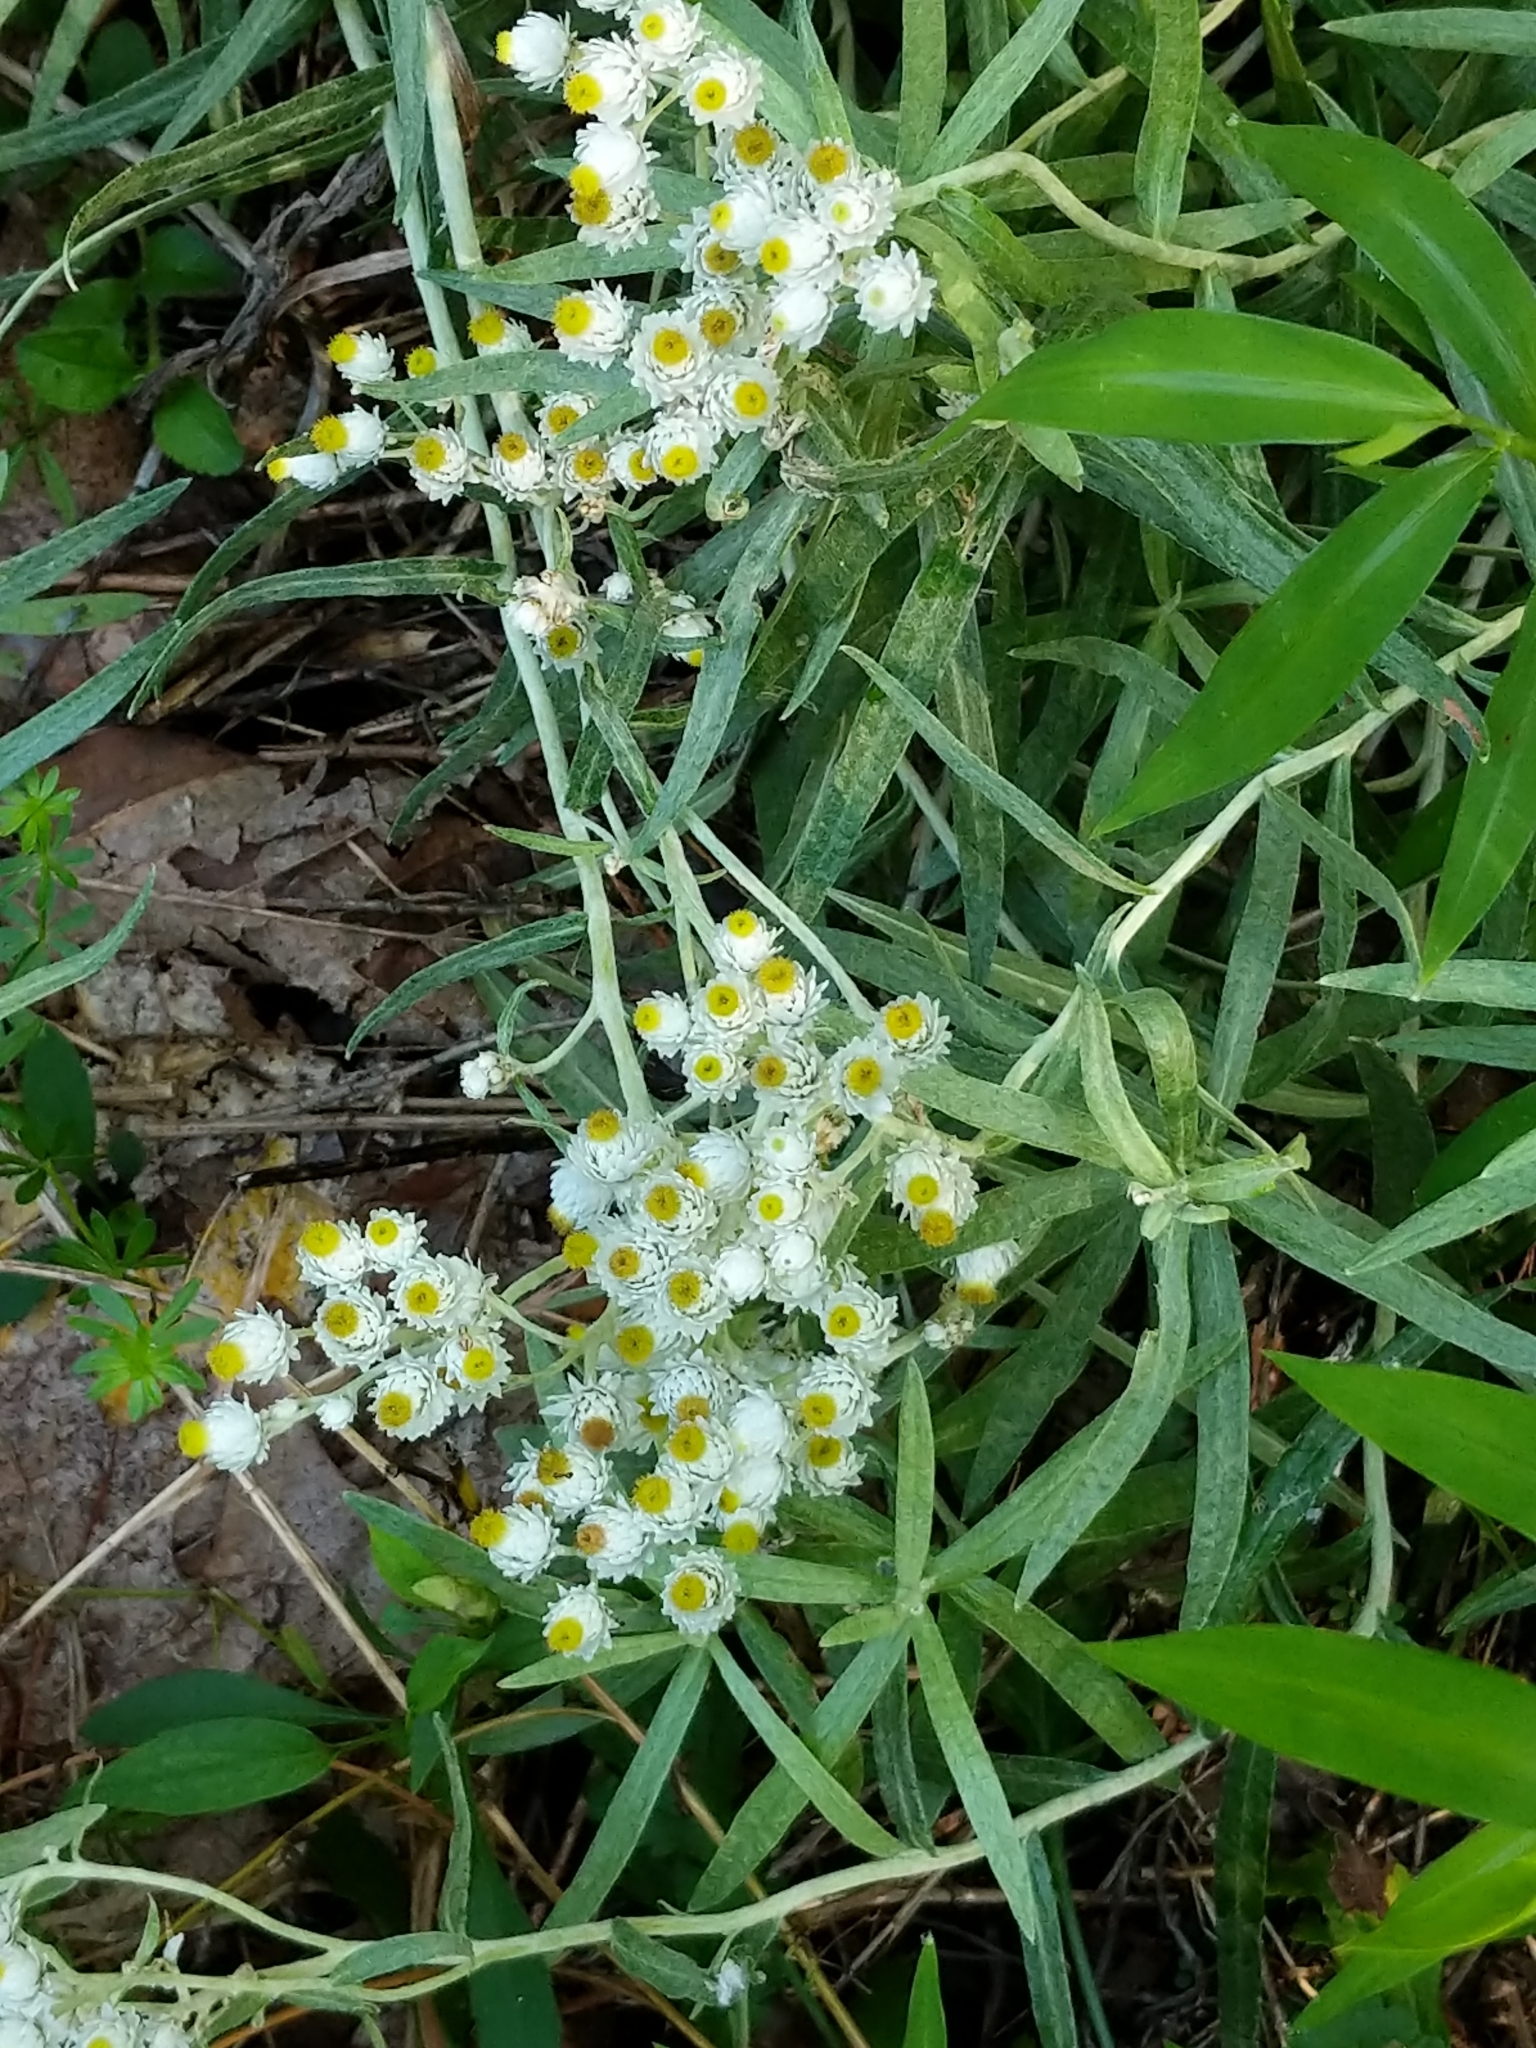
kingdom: Plantae
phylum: Tracheophyta
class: Magnoliopsida
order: Asterales
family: Asteraceae
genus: Anaphalis
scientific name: Anaphalis margaritacea
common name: Pearly everlasting
